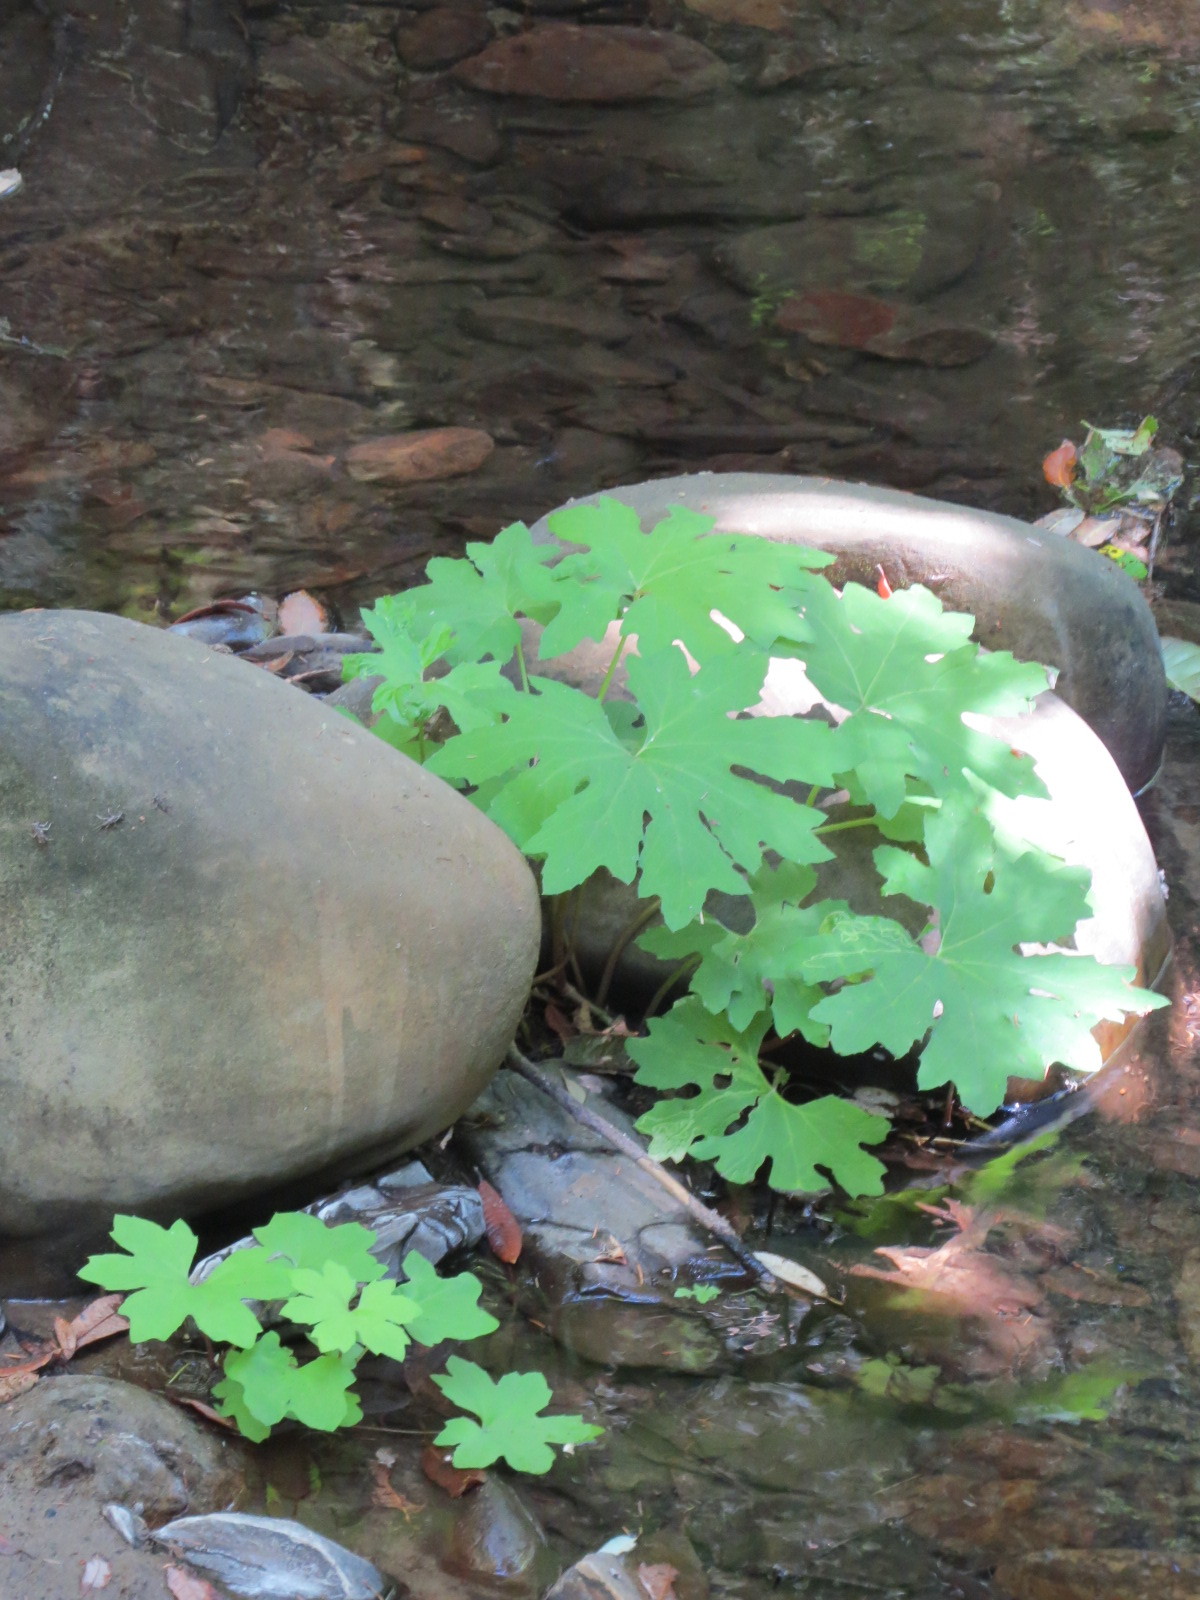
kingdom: Plantae
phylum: Tracheophyta
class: Magnoliopsida
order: Asterales
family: Asteraceae
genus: Petasites
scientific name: Petasites frigidus
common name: Arctic butterbur
